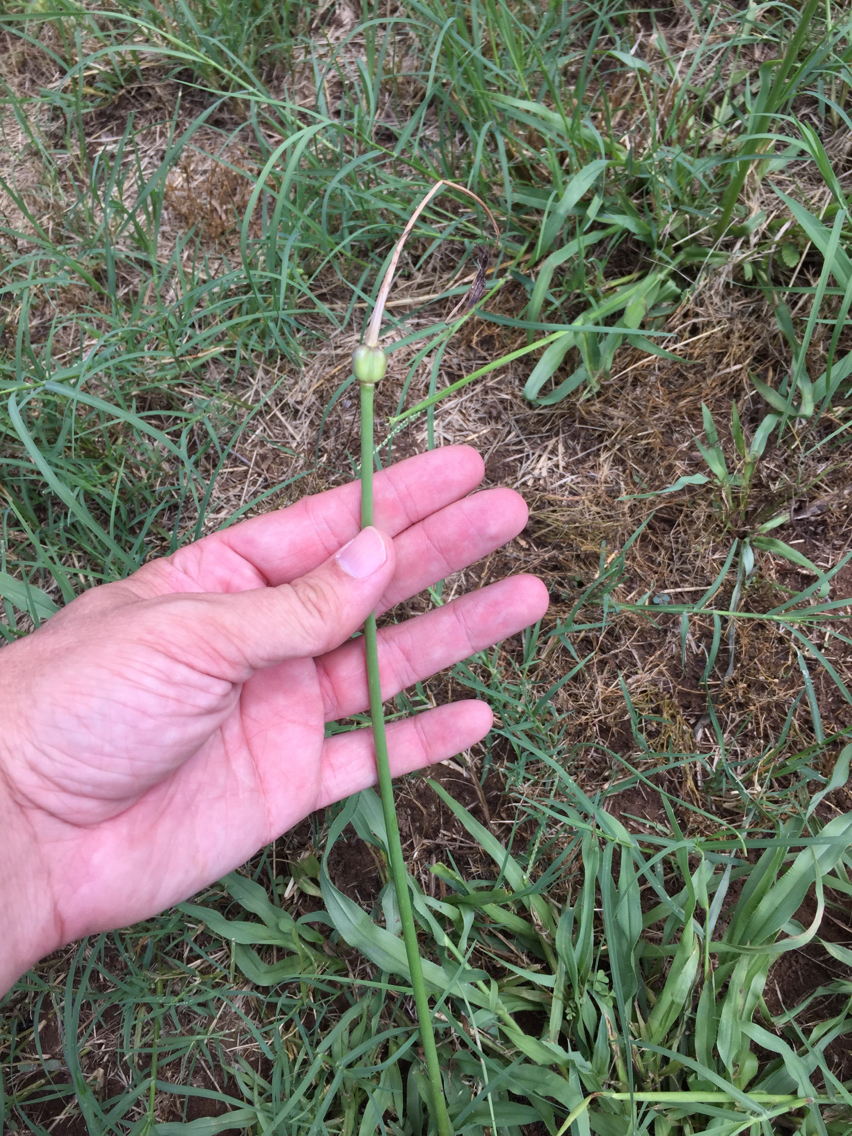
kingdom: Plantae
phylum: Tracheophyta
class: Liliopsida
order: Asparagales
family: Amaryllidaceae
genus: Zephyranthes
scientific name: Zephyranthes chlorosolen
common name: Evening rain-lily
